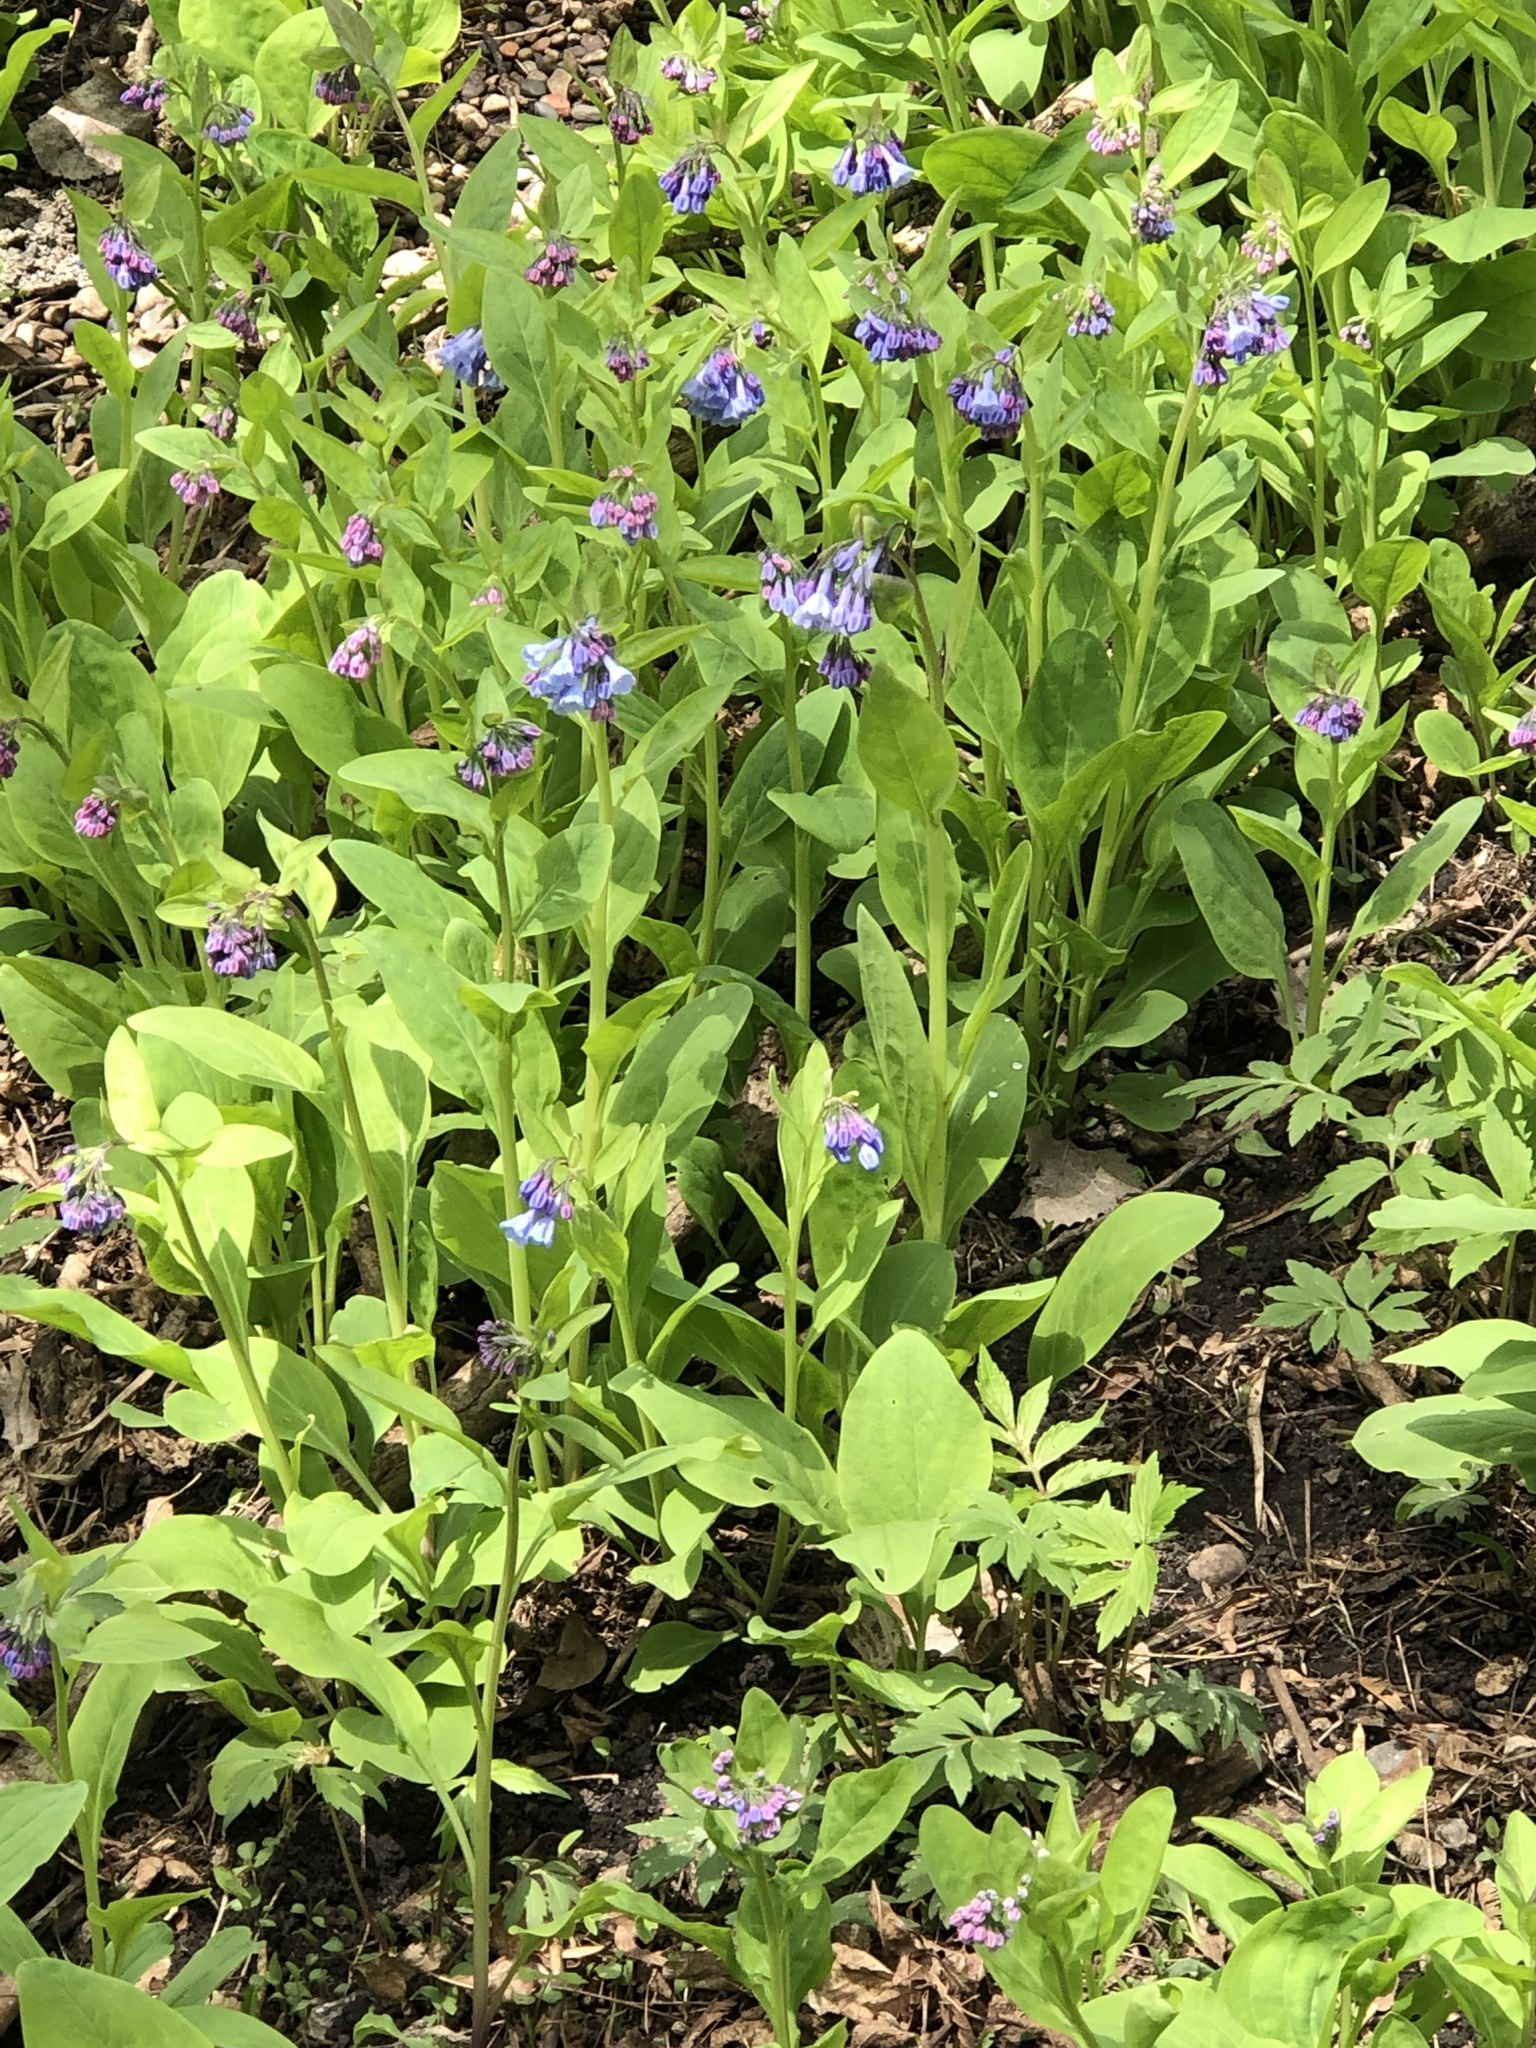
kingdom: Plantae
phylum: Tracheophyta
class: Magnoliopsida
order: Boraginales
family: Boraginaceae
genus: Mertensia
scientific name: Mertensia virginica
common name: Virginia bluebells
